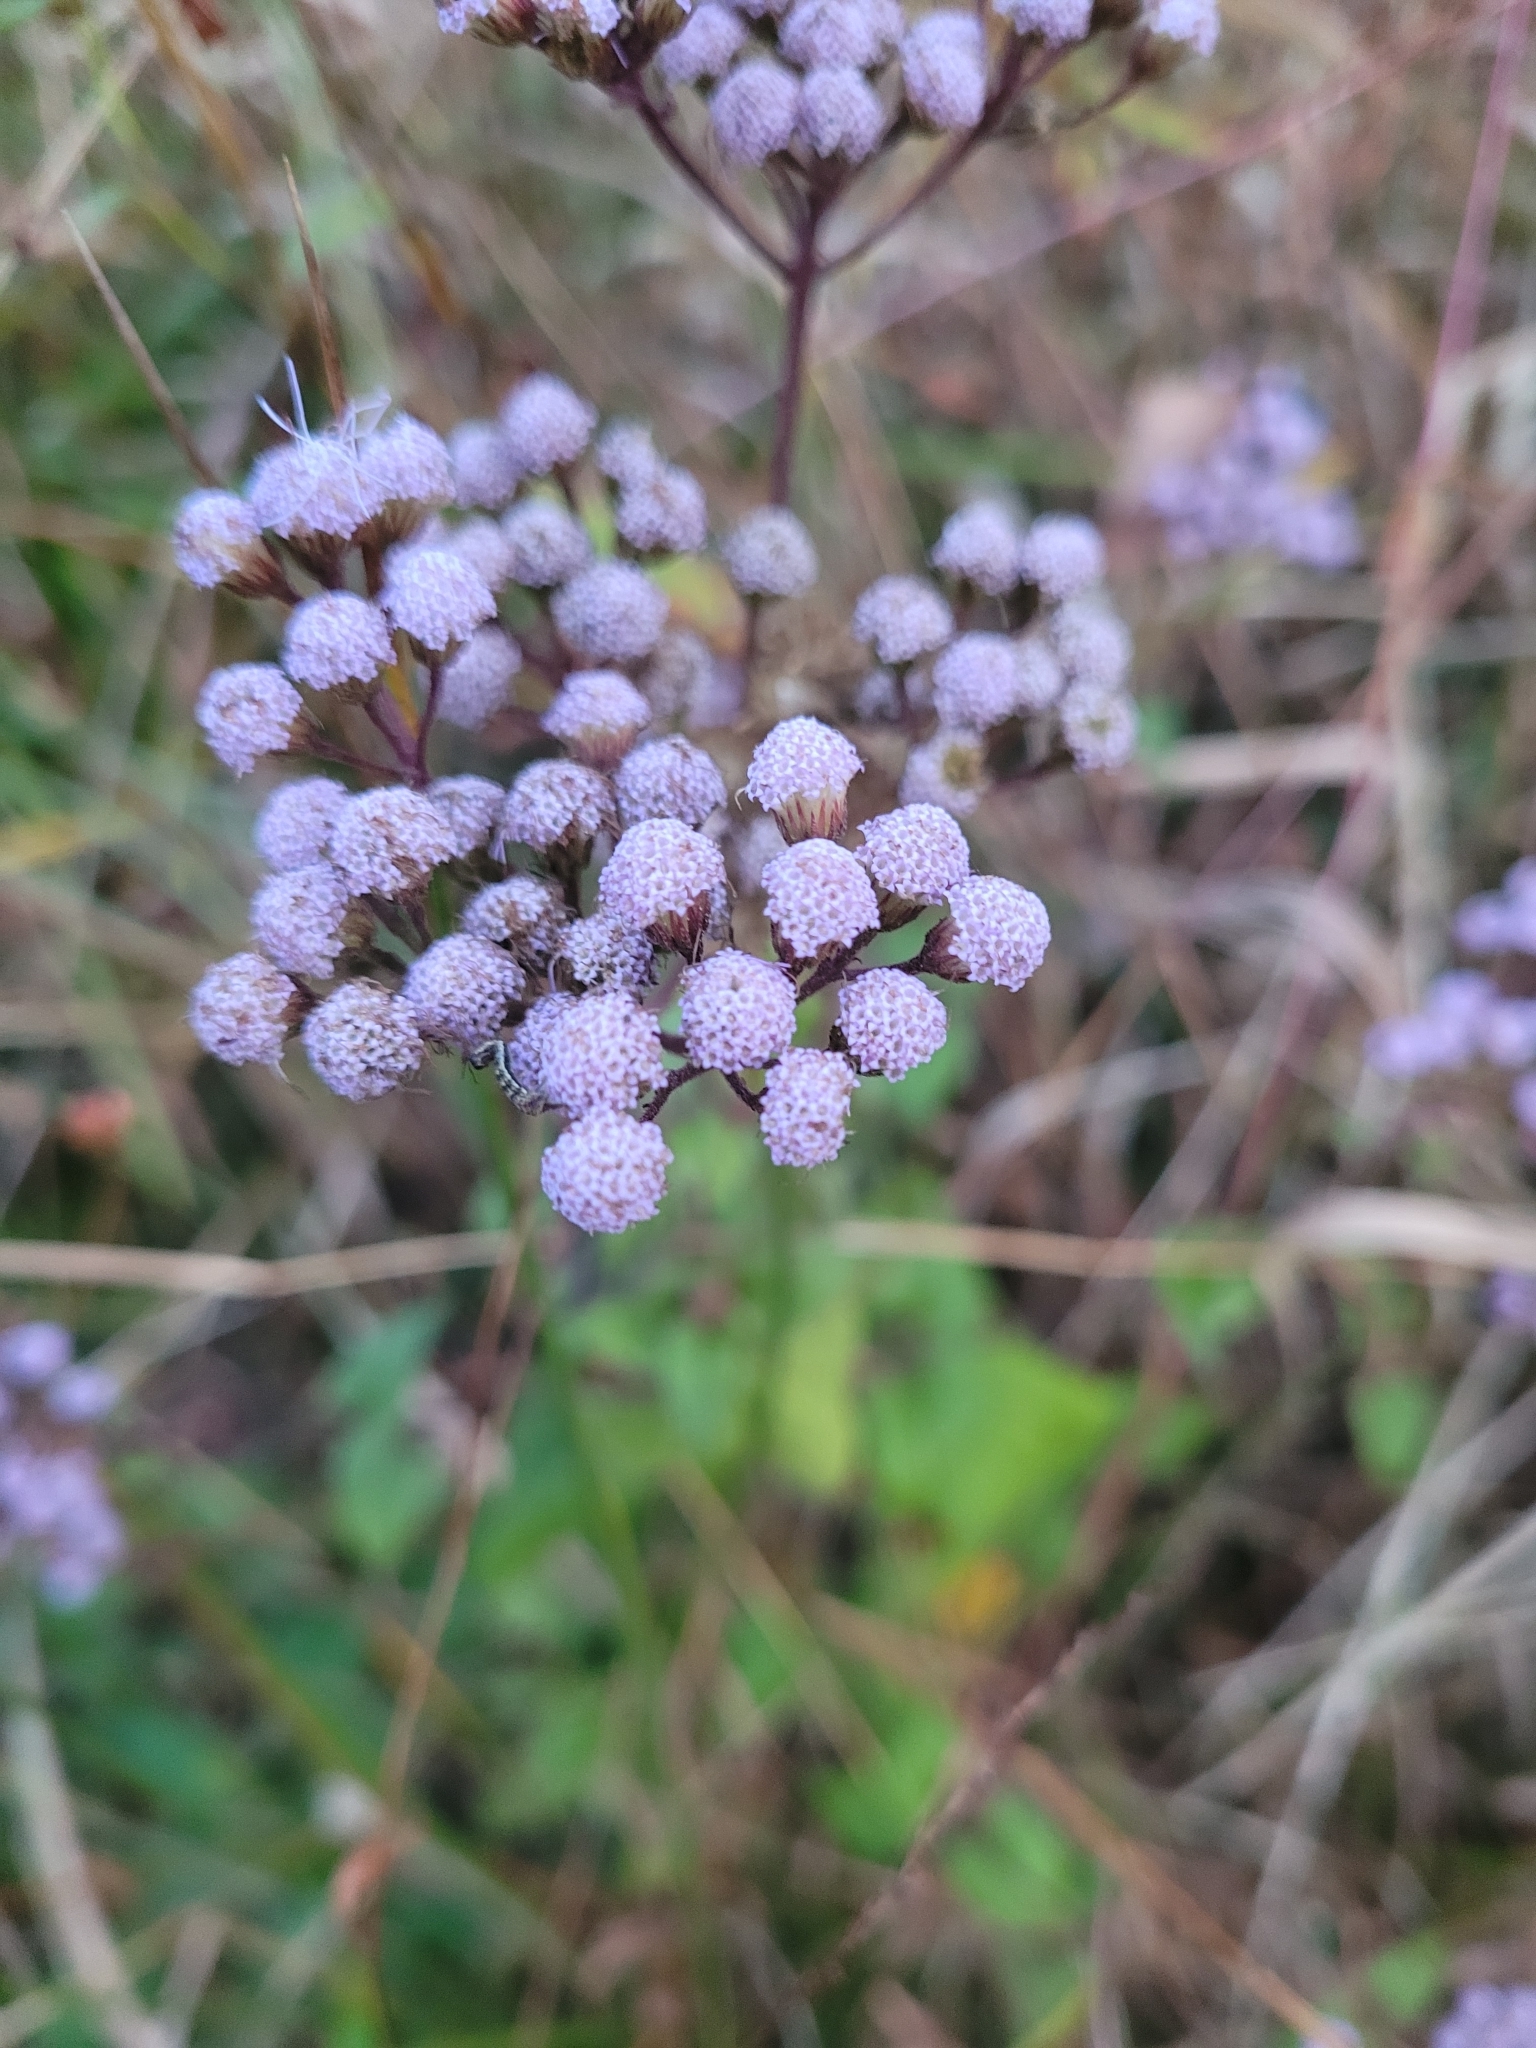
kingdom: Plantae
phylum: Tracheophyta
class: Magnoliopsida
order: Asterales
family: Asteraceae
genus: Conoclinium
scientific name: Conoclinium coelestinum
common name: Blue mistflower
